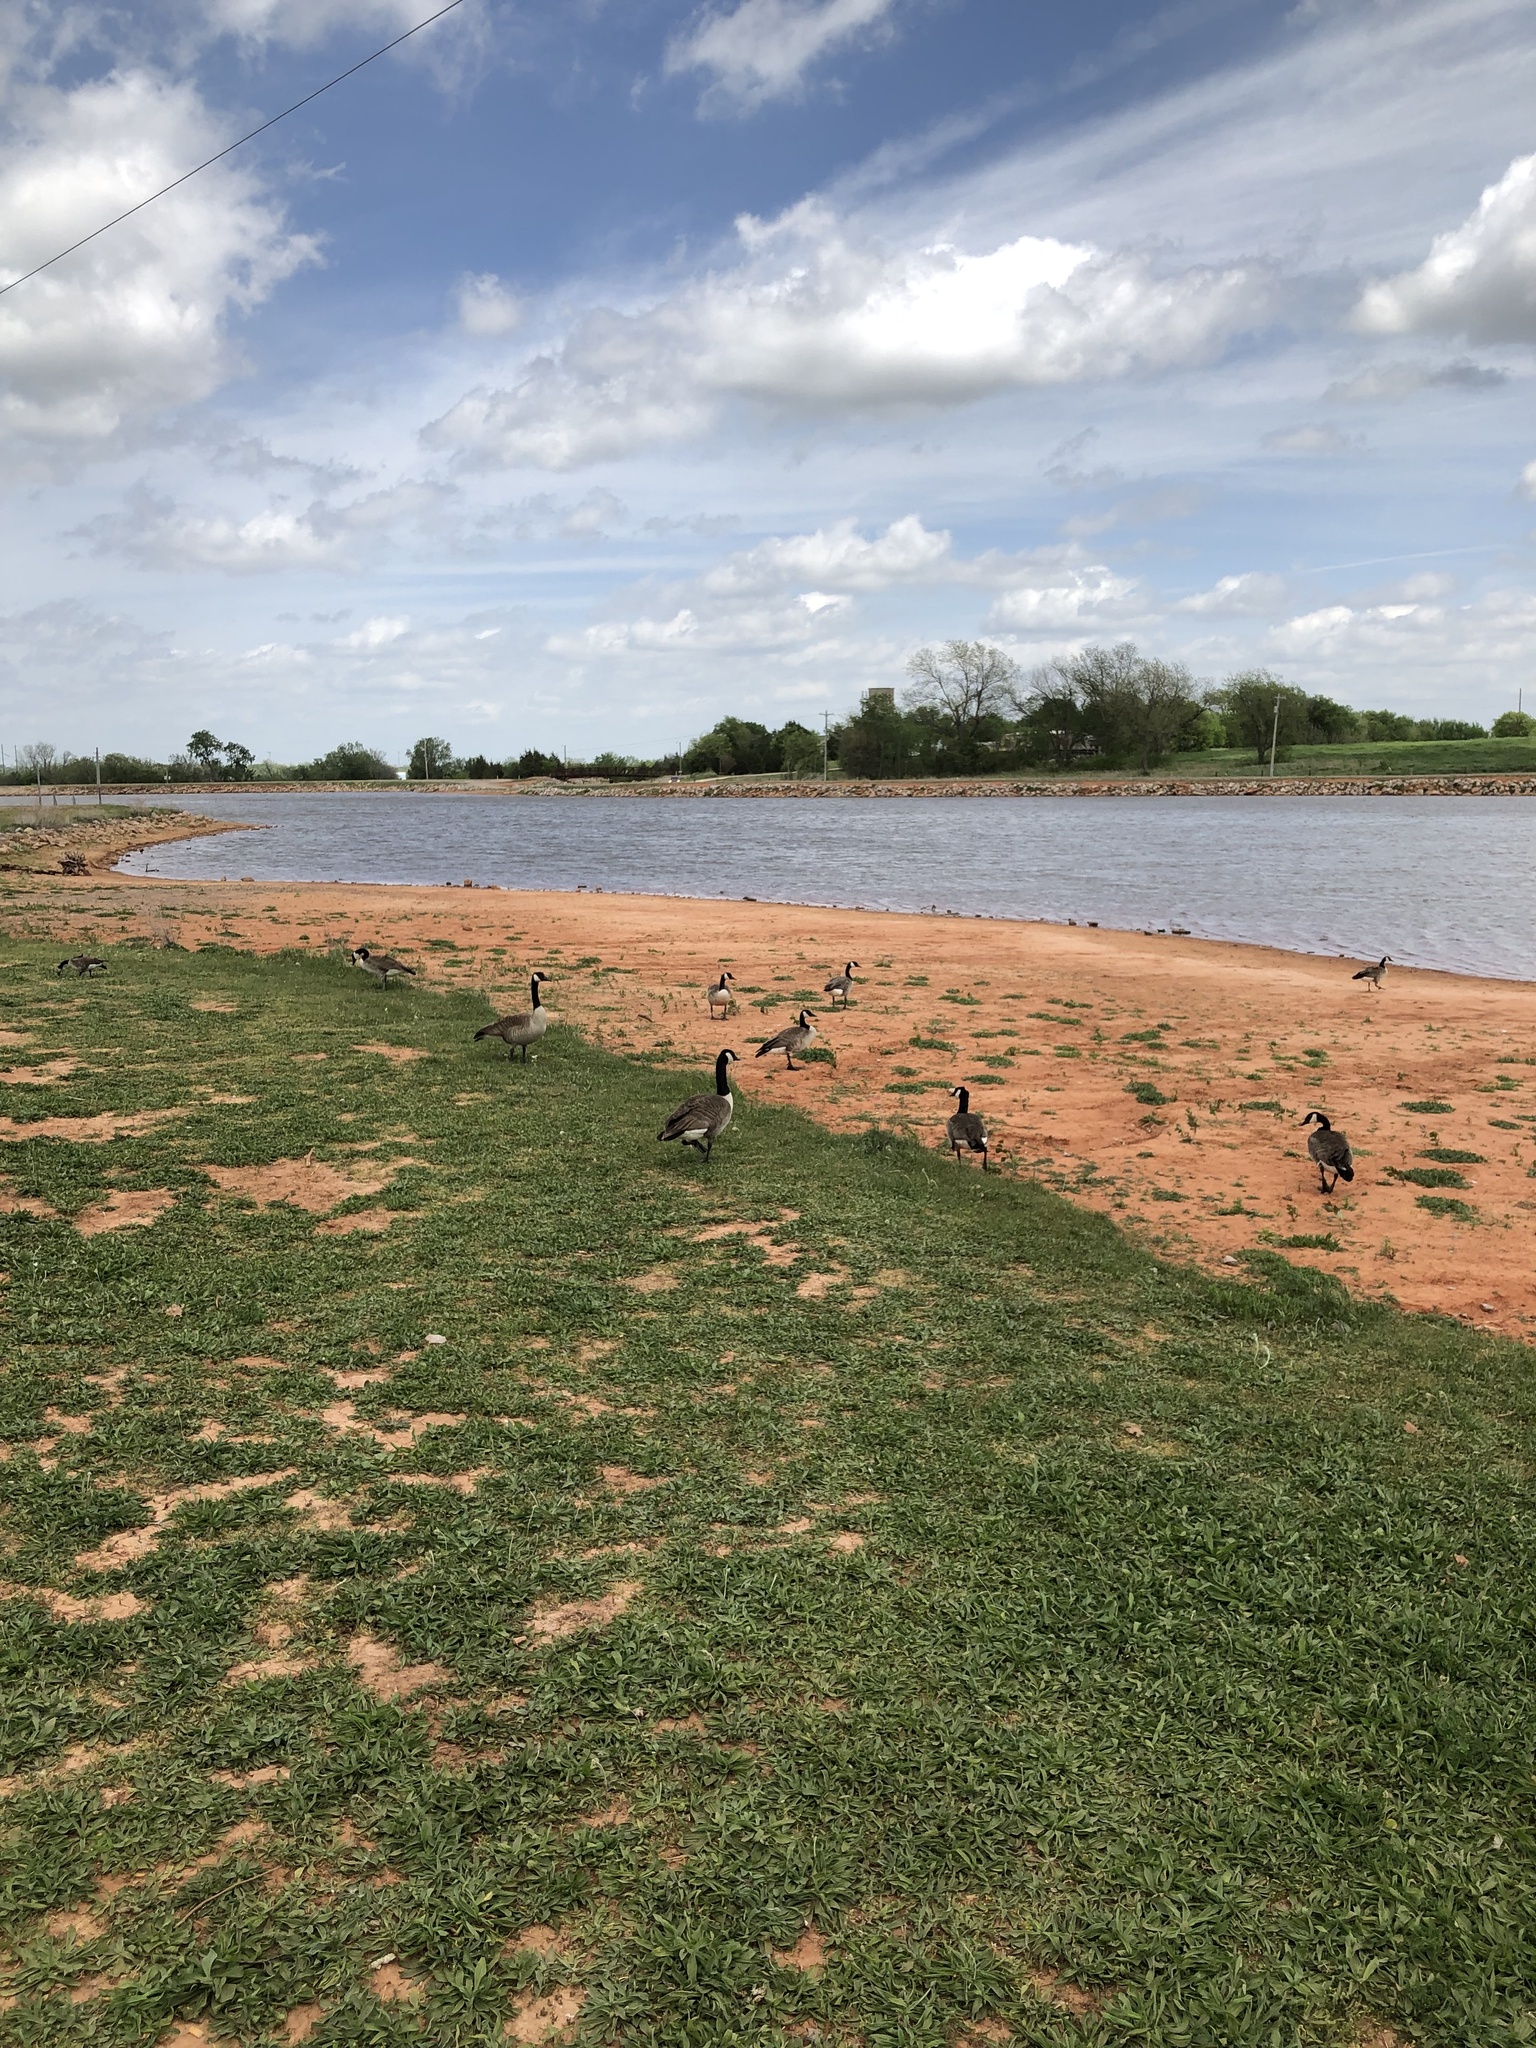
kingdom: Animalia
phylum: Chordata
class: Aves
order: Anseriformes
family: Anatidae
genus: Branta
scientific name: Branta canadensis
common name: Canada goose
